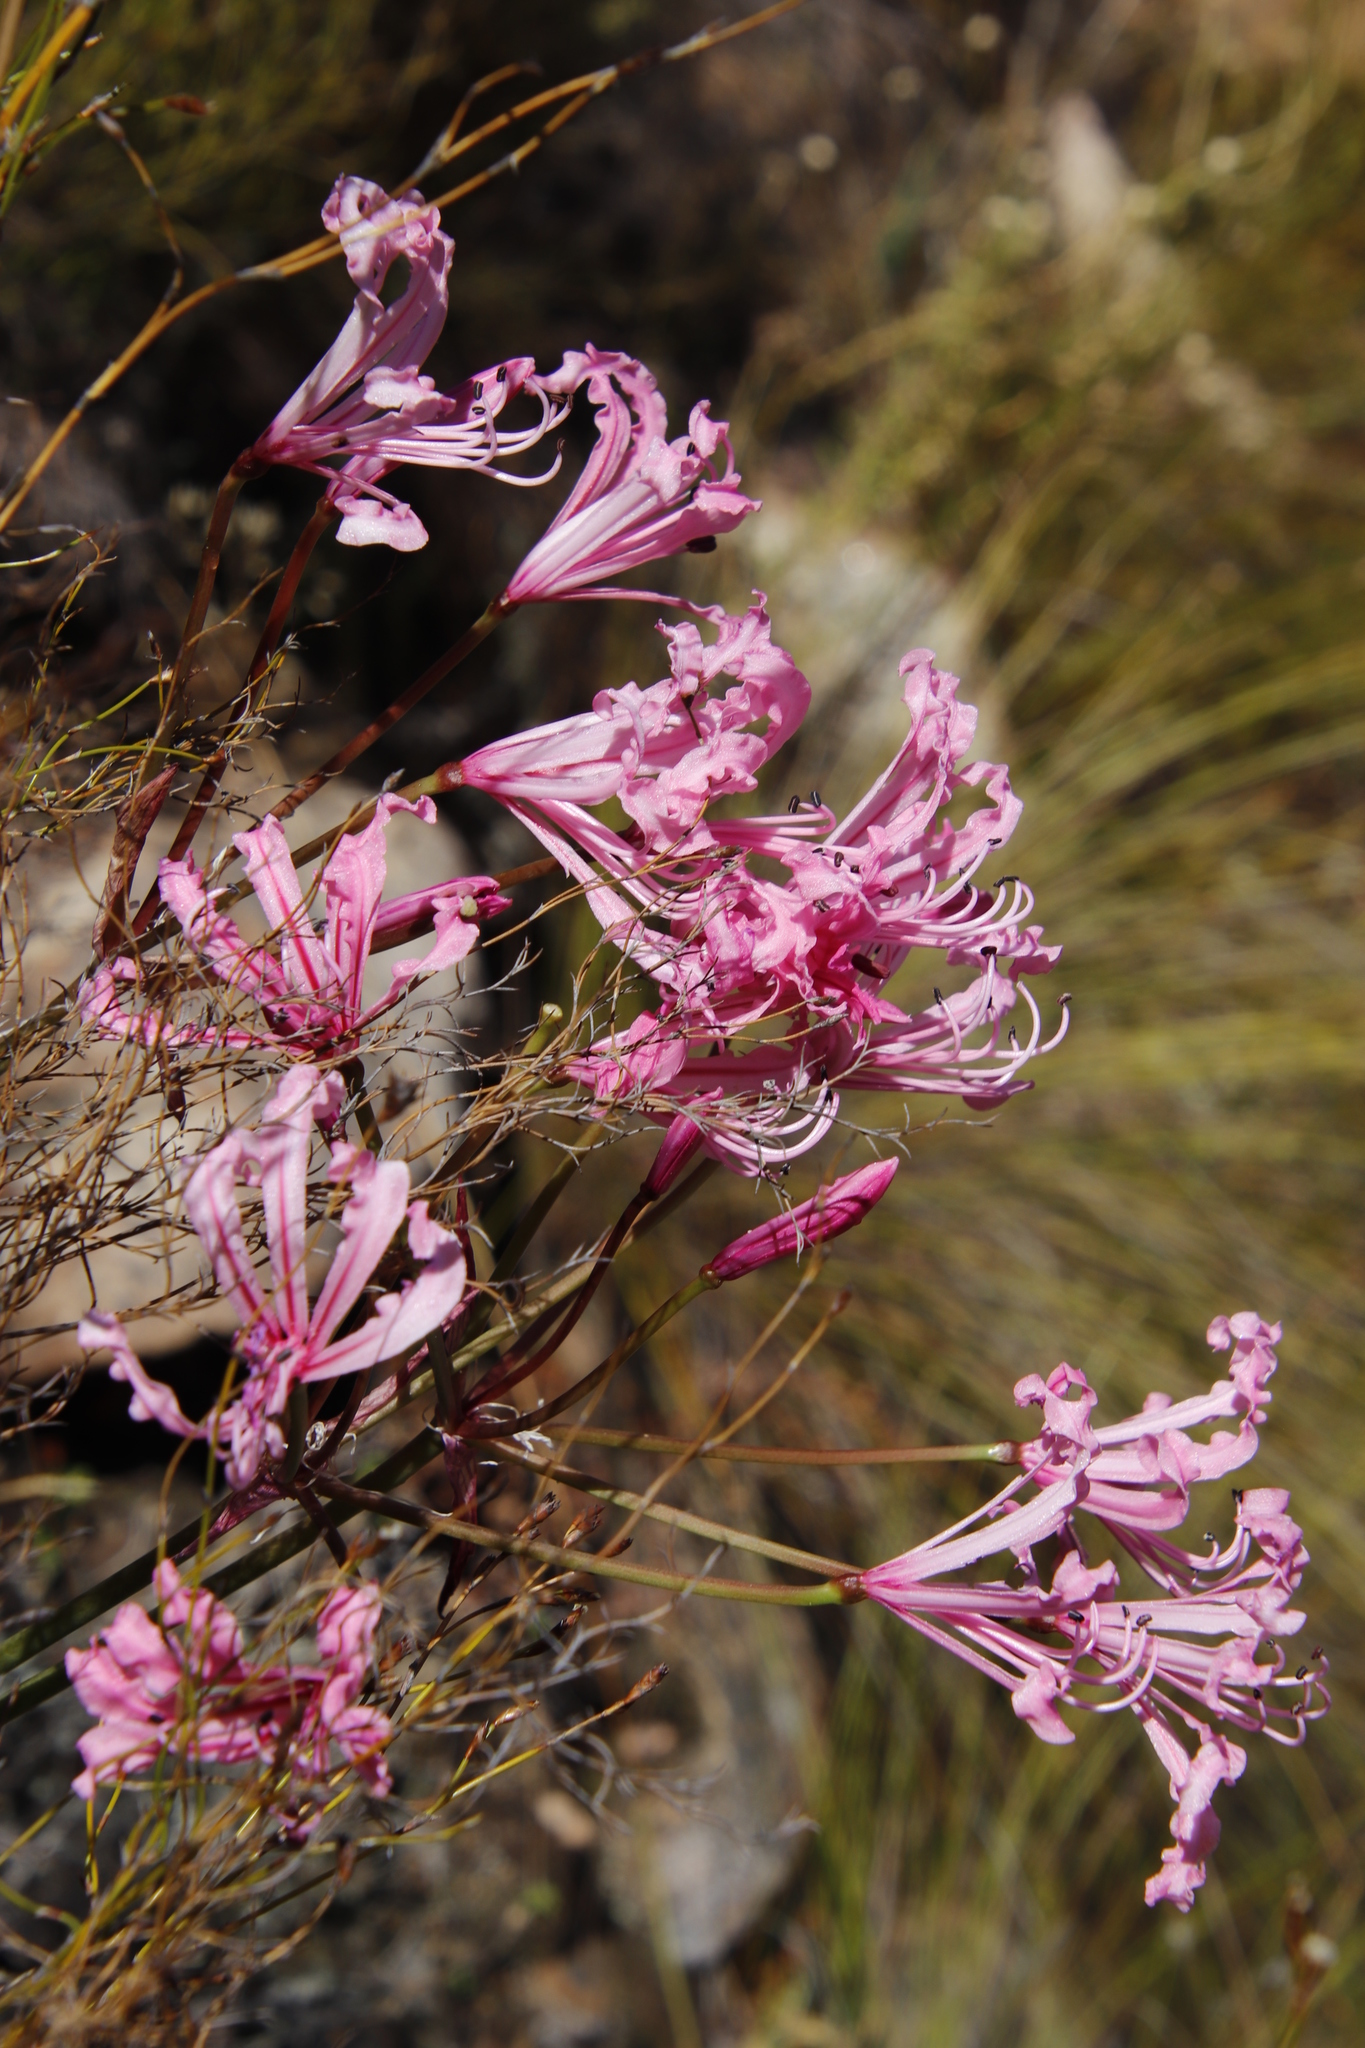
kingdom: Plantae
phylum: Tracheophyta
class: Liliopsida
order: Asparagales
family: Amaryllidaceae
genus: Nerine
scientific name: Nerine humilis
